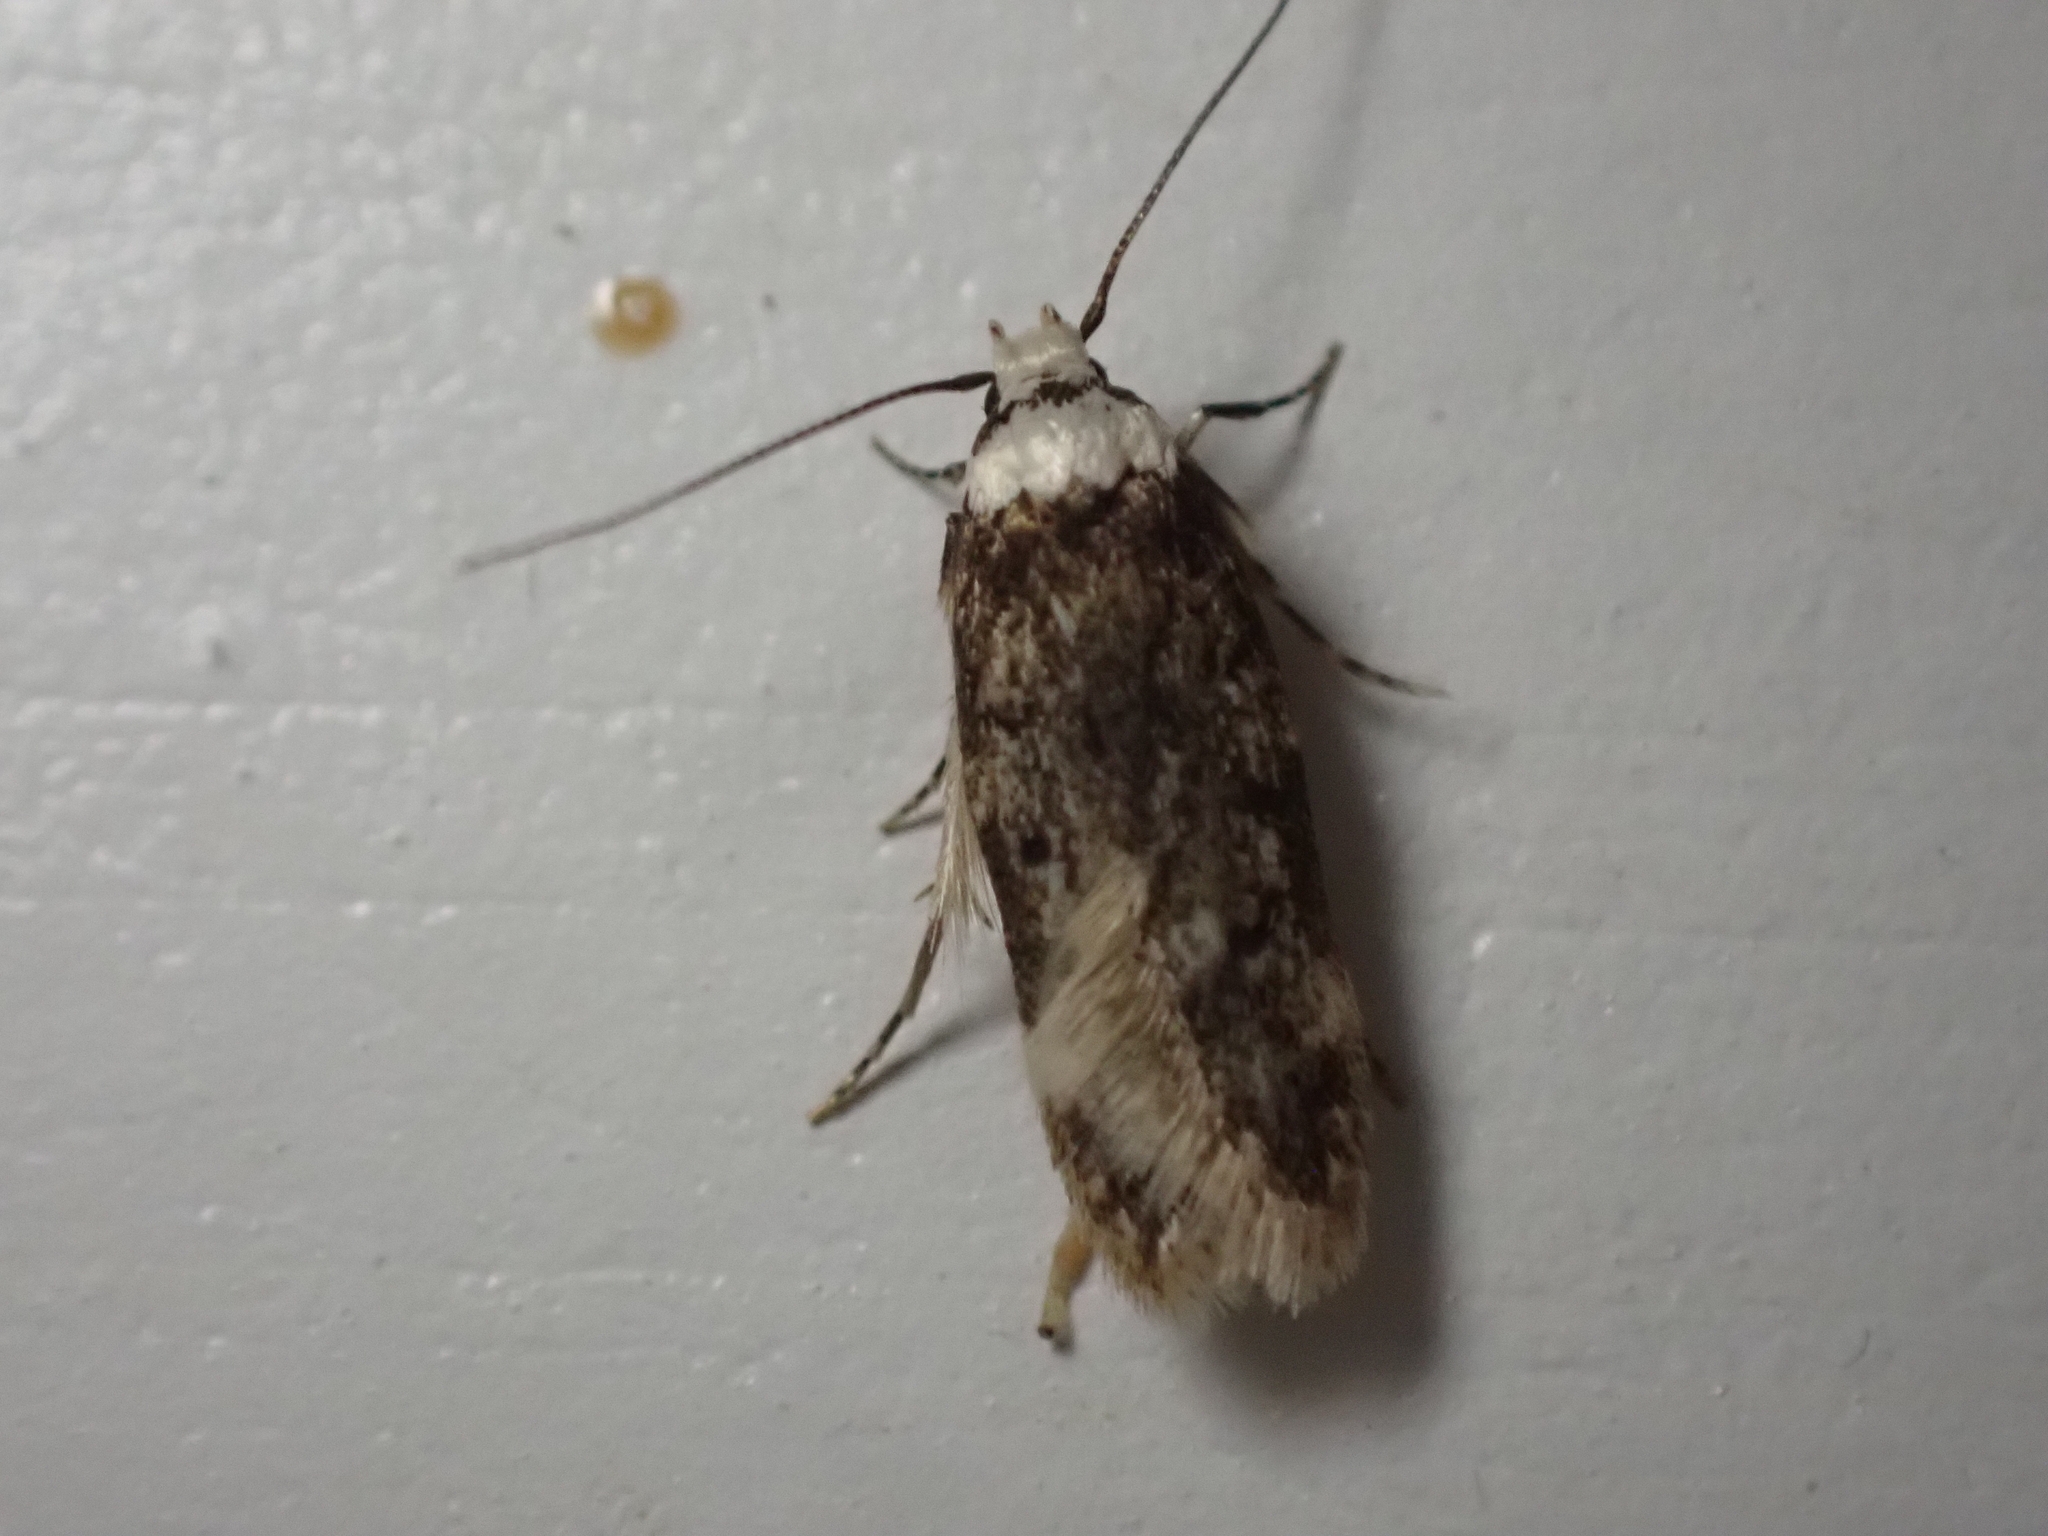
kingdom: Animalia
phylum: Arthropoda
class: Insecta
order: Lepidoptera
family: Oecophoridae
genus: Endrosis
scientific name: Endrosis sarcitrella
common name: White-shouldered house moth
